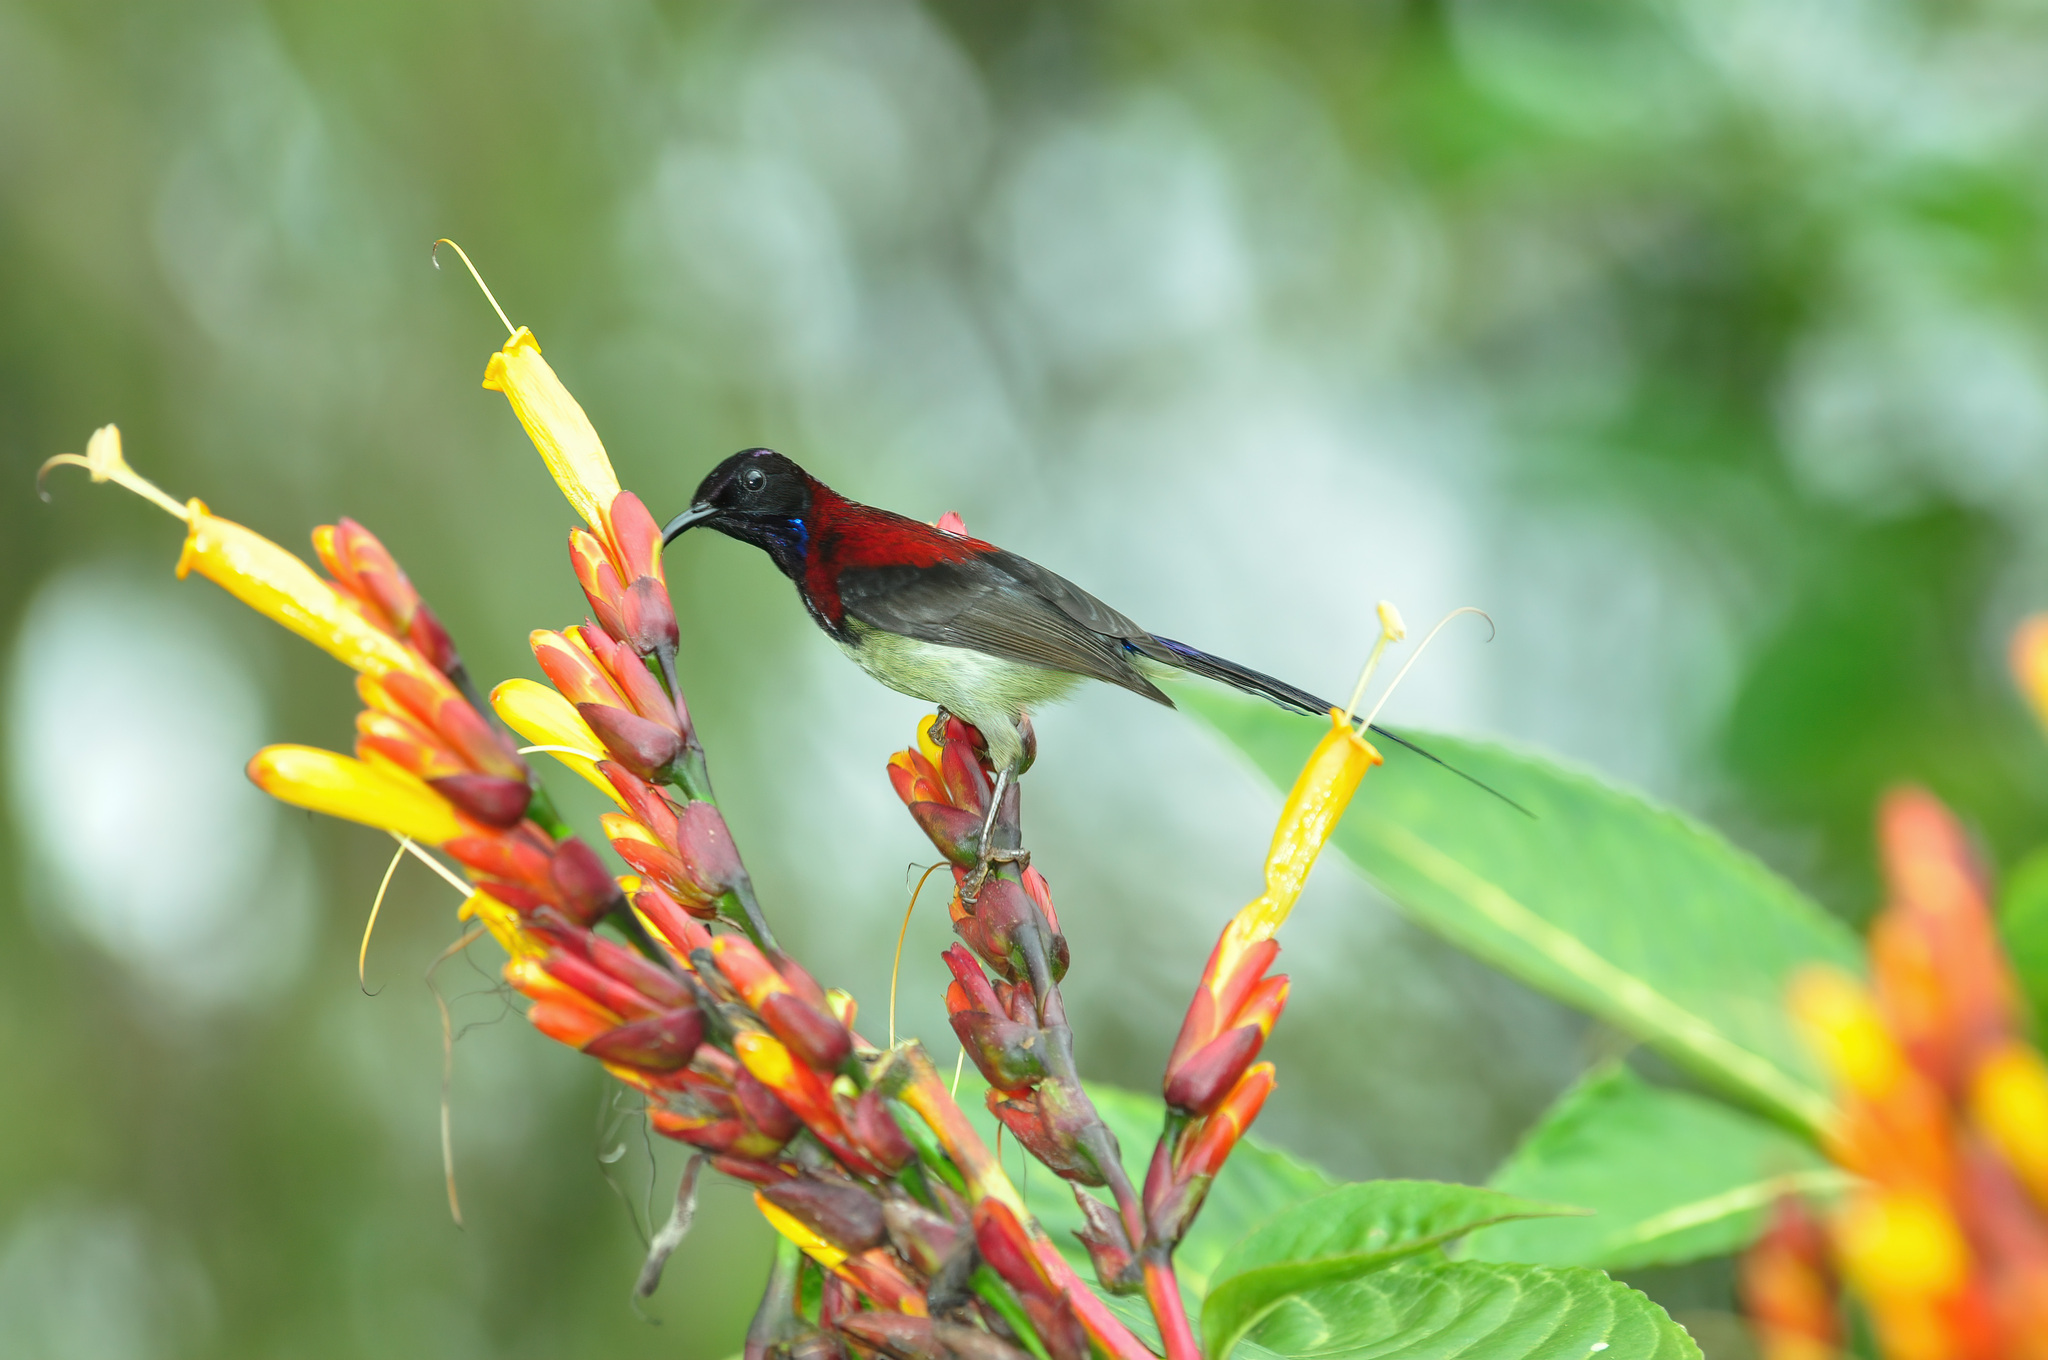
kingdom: Animalia
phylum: Chordata
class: Aves
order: Passeriformes
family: Nectariniidae
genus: Aethopyga
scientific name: Aethopyga saturata
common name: Black-throated sunbird
